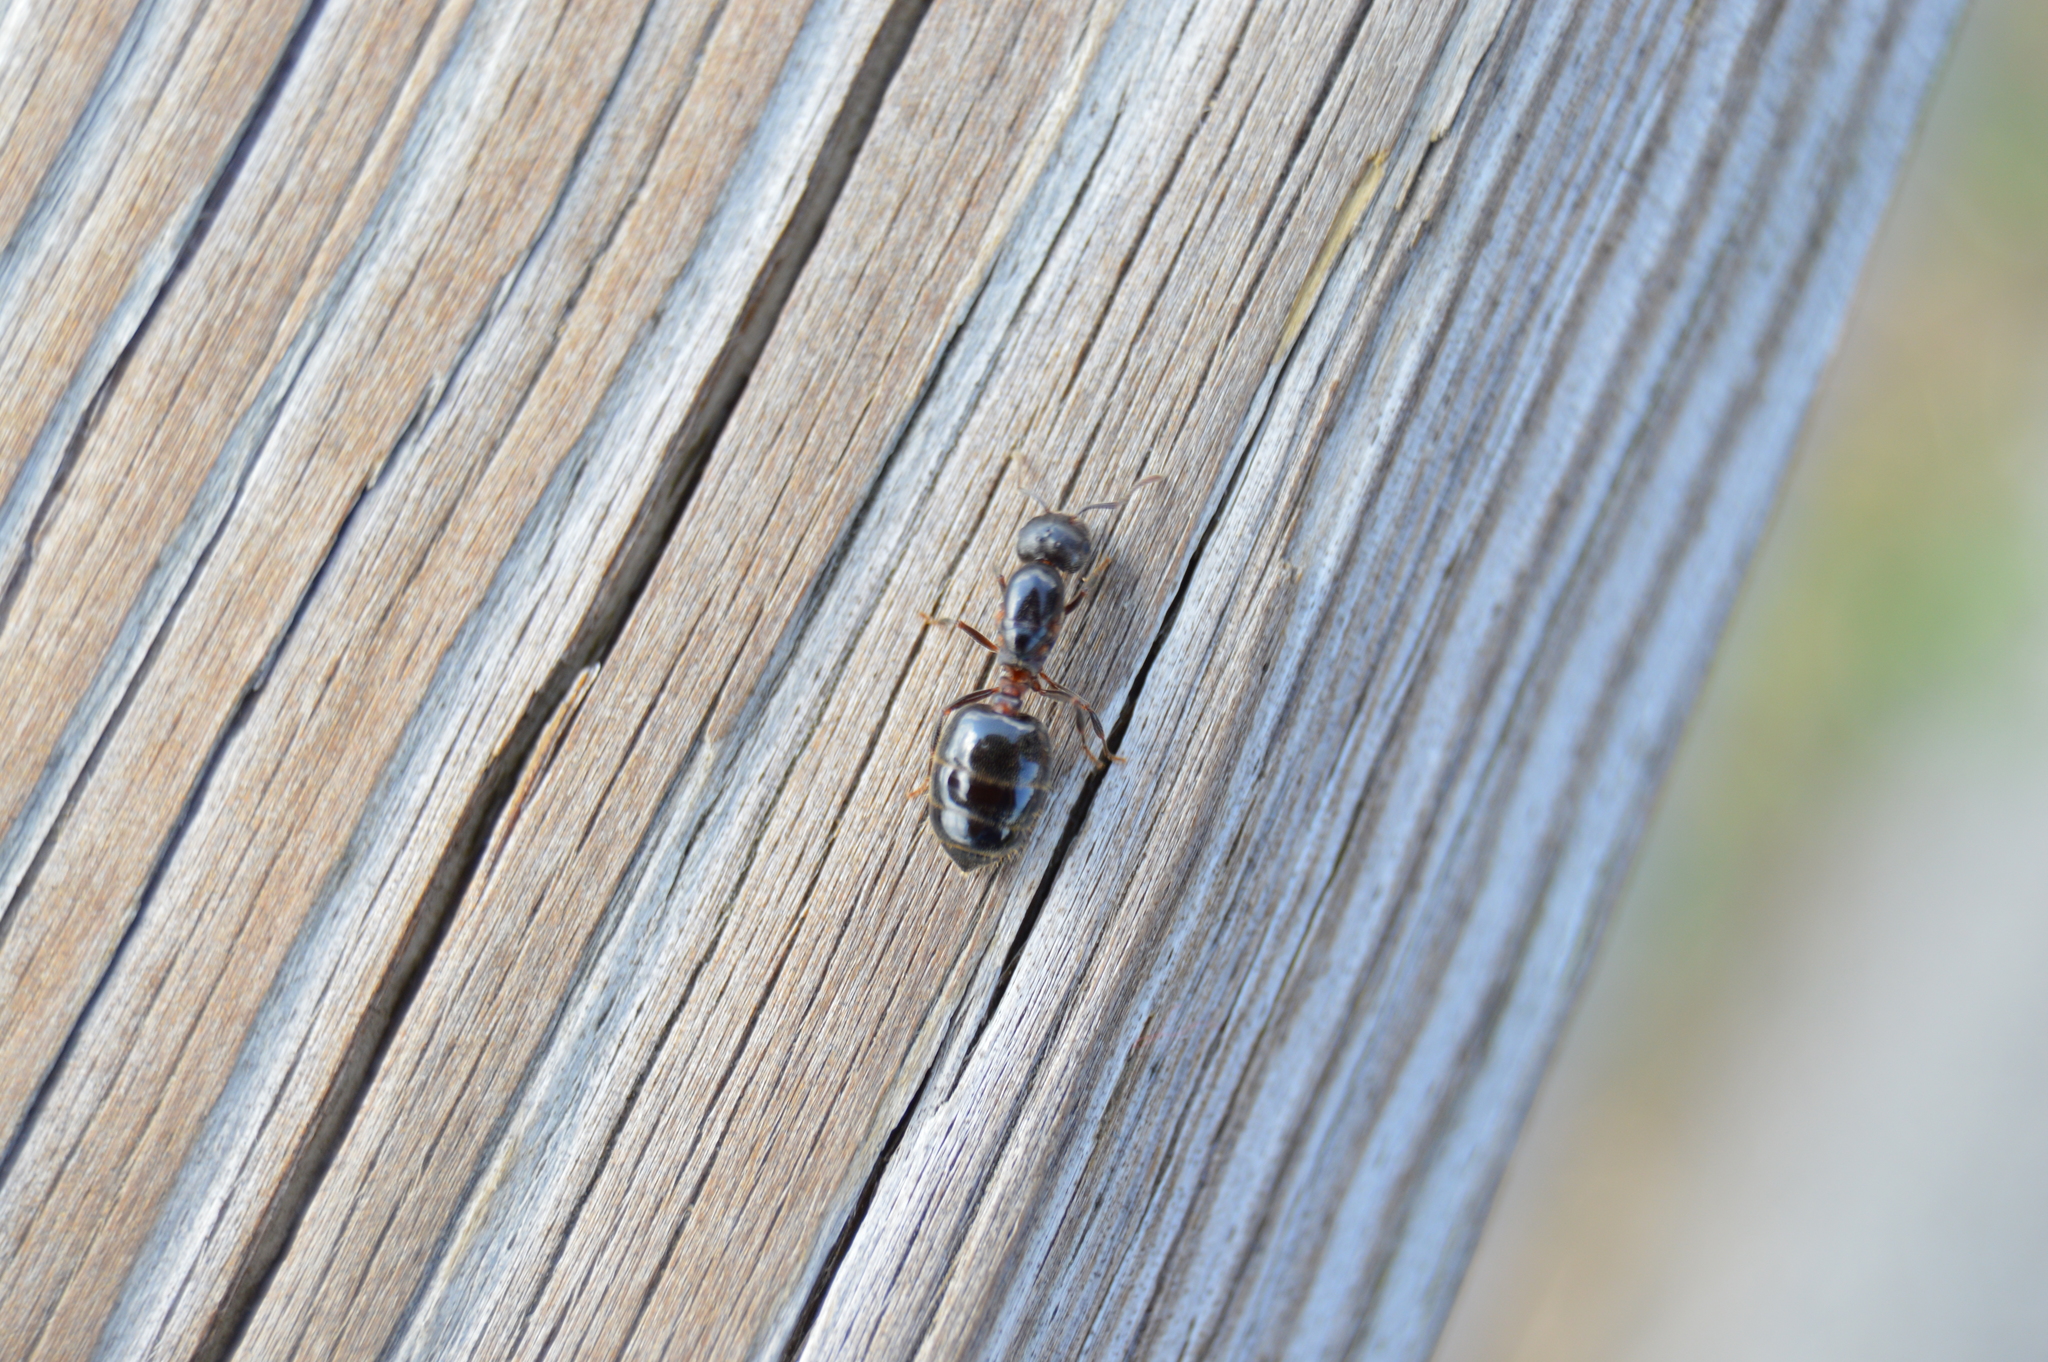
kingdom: Animalia
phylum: Arthropoda
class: Insecta
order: Hymenoptera
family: Formicidae
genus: Crematogaster
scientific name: Crematogaster cerasi
